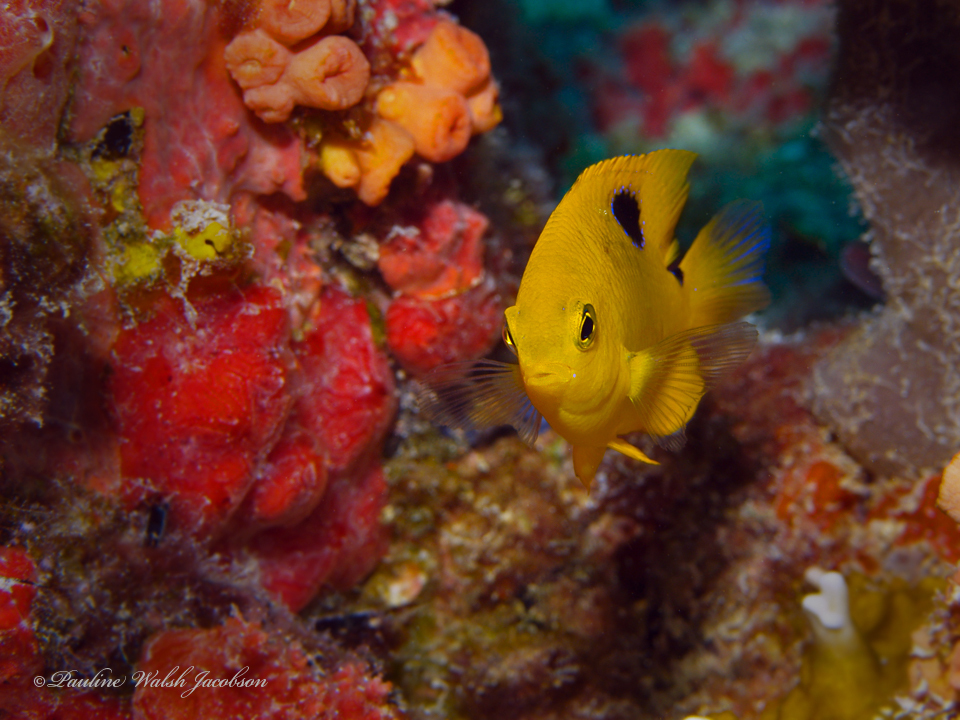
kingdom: Animalia
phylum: Chordata
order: Perciformes
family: Pomacentridae
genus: Stegastes
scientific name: Stegastes planifrons
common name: Threespot damselfish
